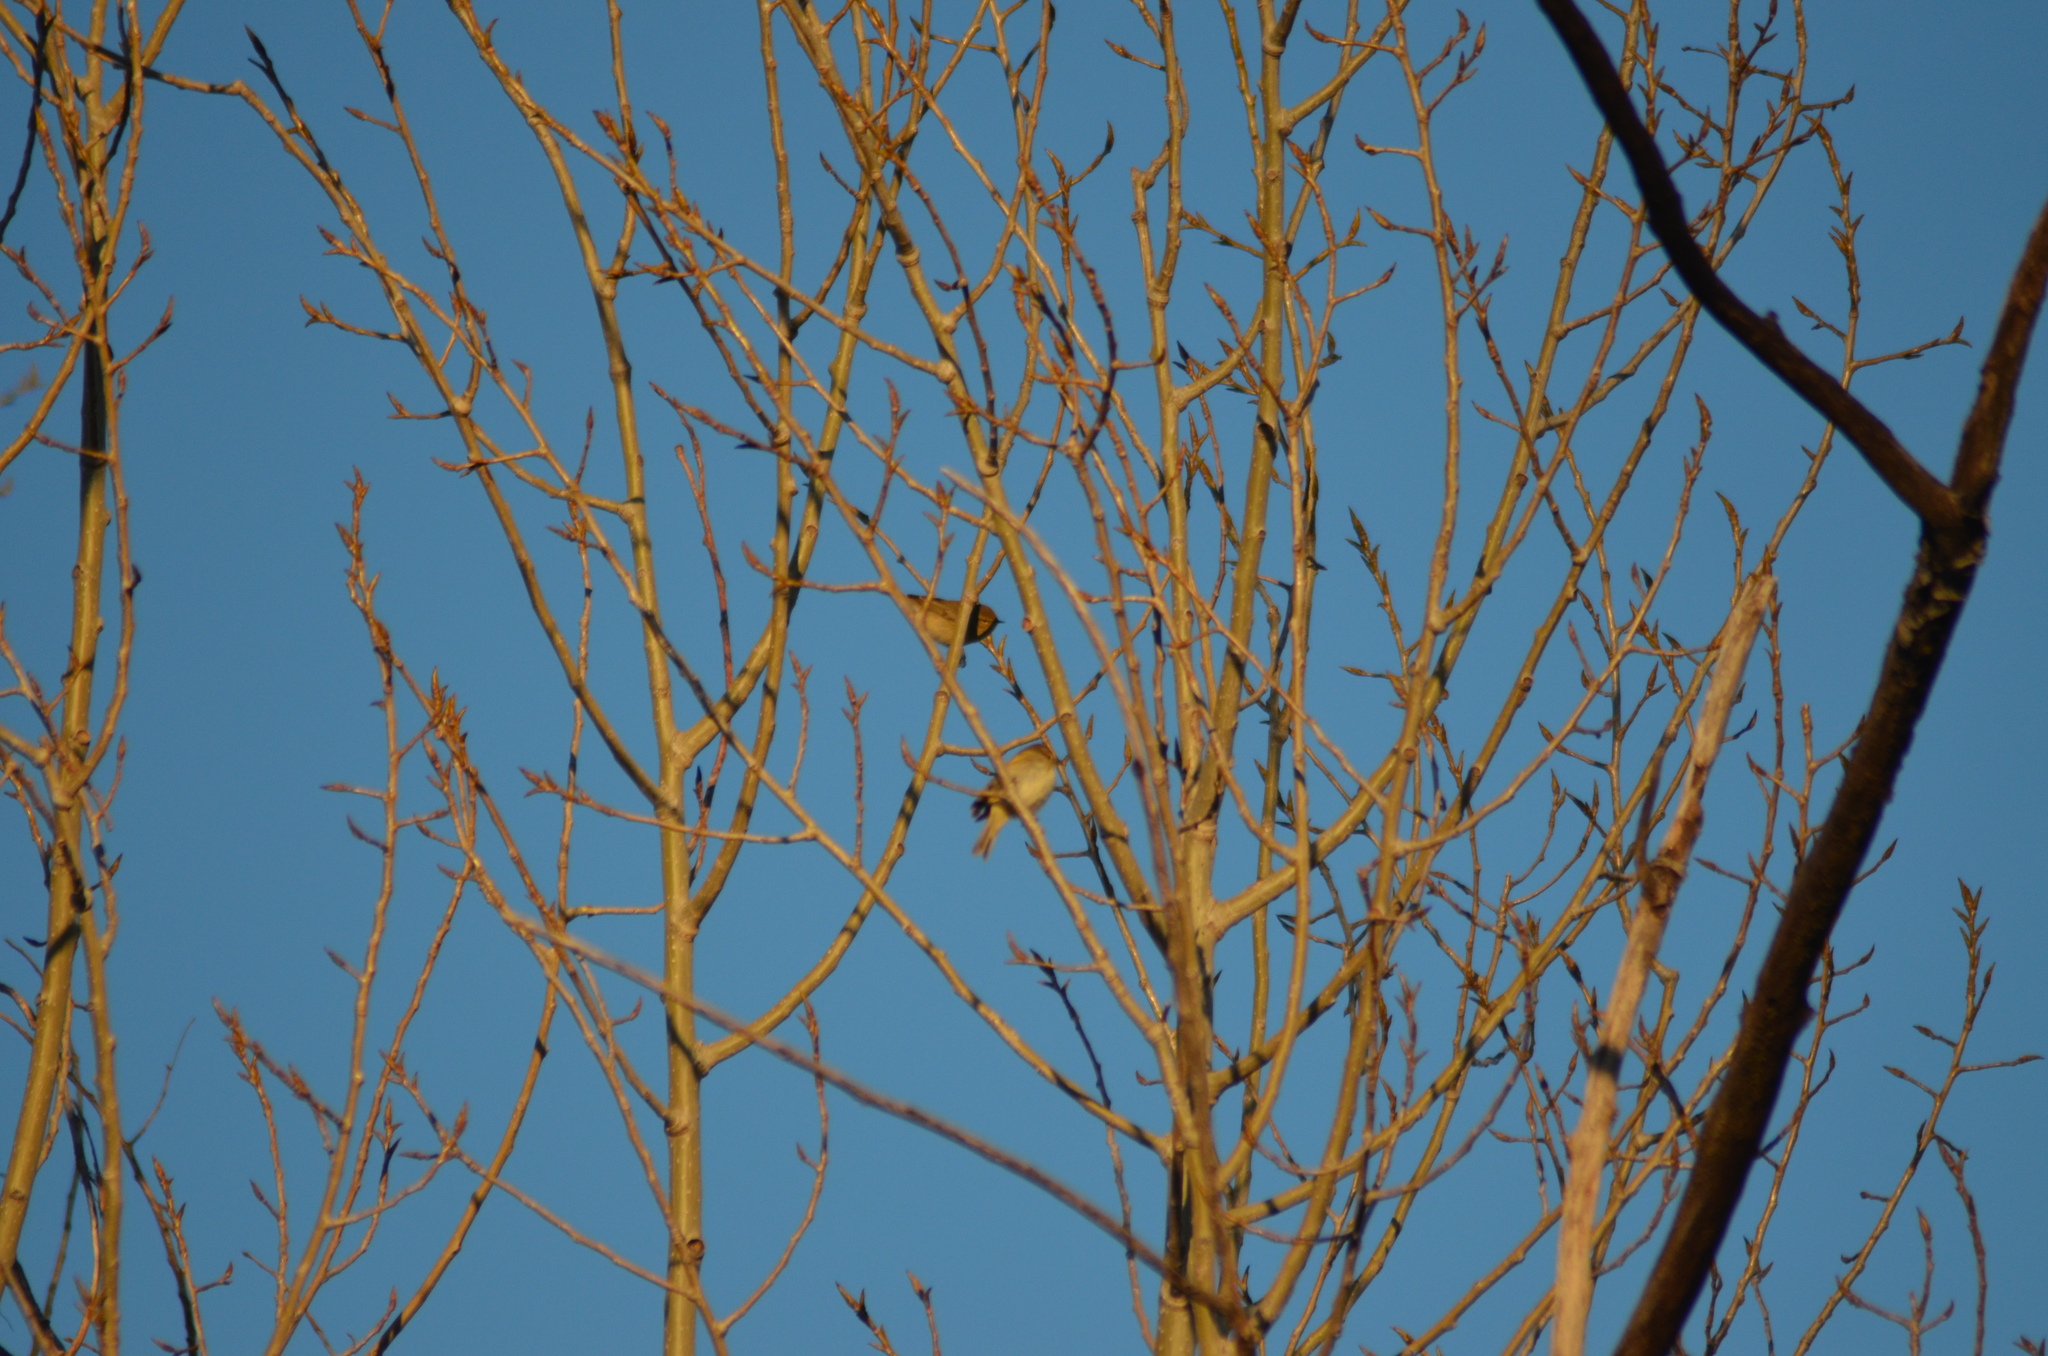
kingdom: Animalia
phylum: Chordata
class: Aves
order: Passeriformes
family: Phylloscopidae
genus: Phylloscopus
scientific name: Phylloscopus collybita
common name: Common chiffchaff
